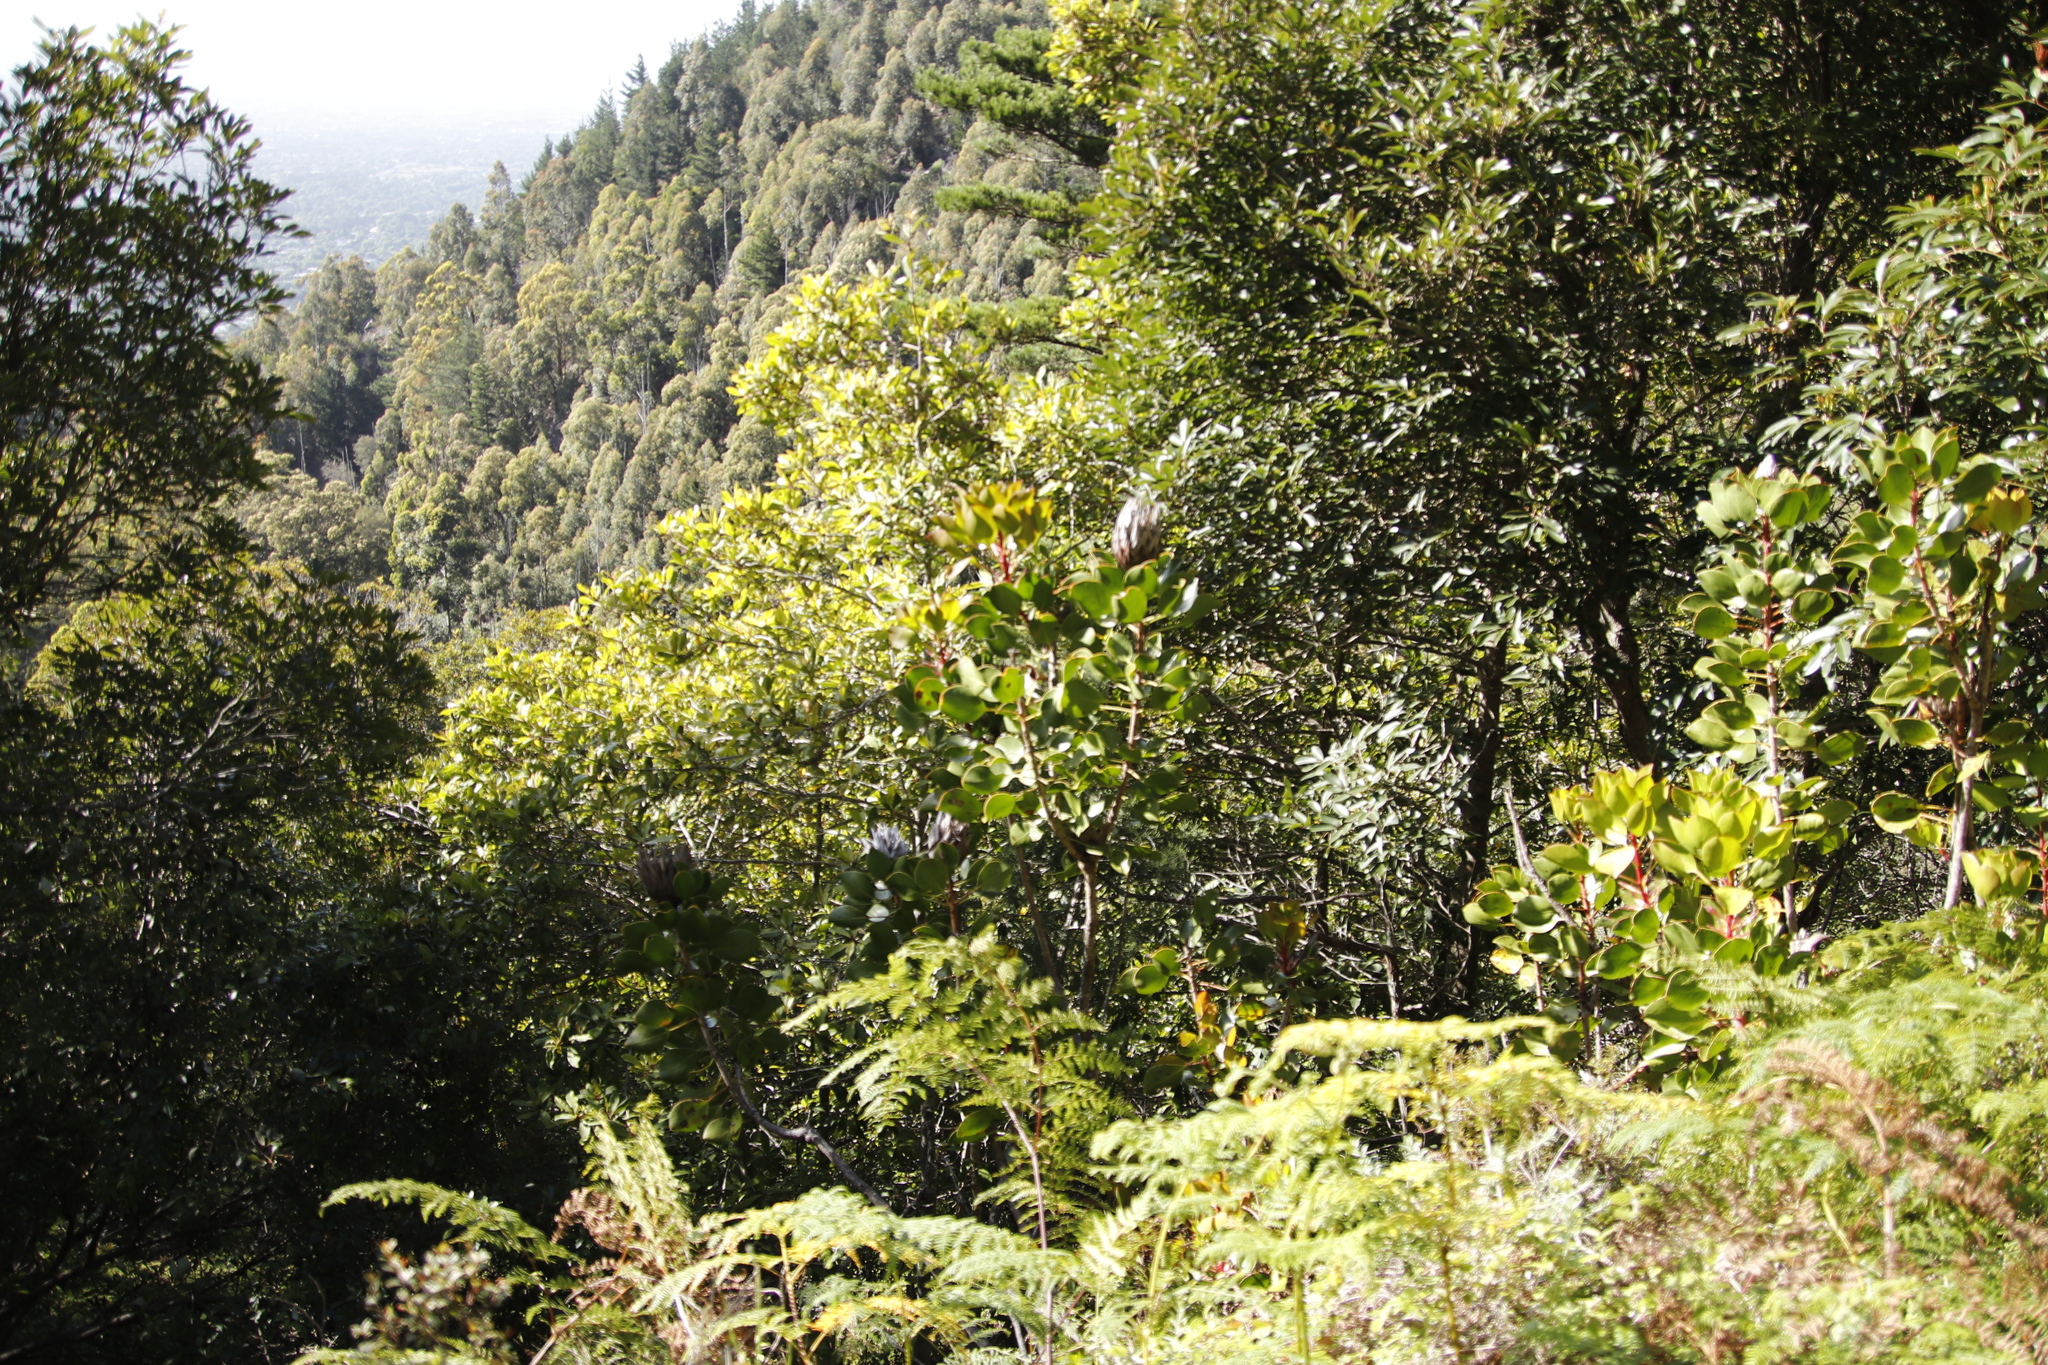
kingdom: Plantae
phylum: Tracheophyta
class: Magnoliopsida
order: Proteales
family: Proteaceae
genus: Protea
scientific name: Protea cynaroides
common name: King protea
